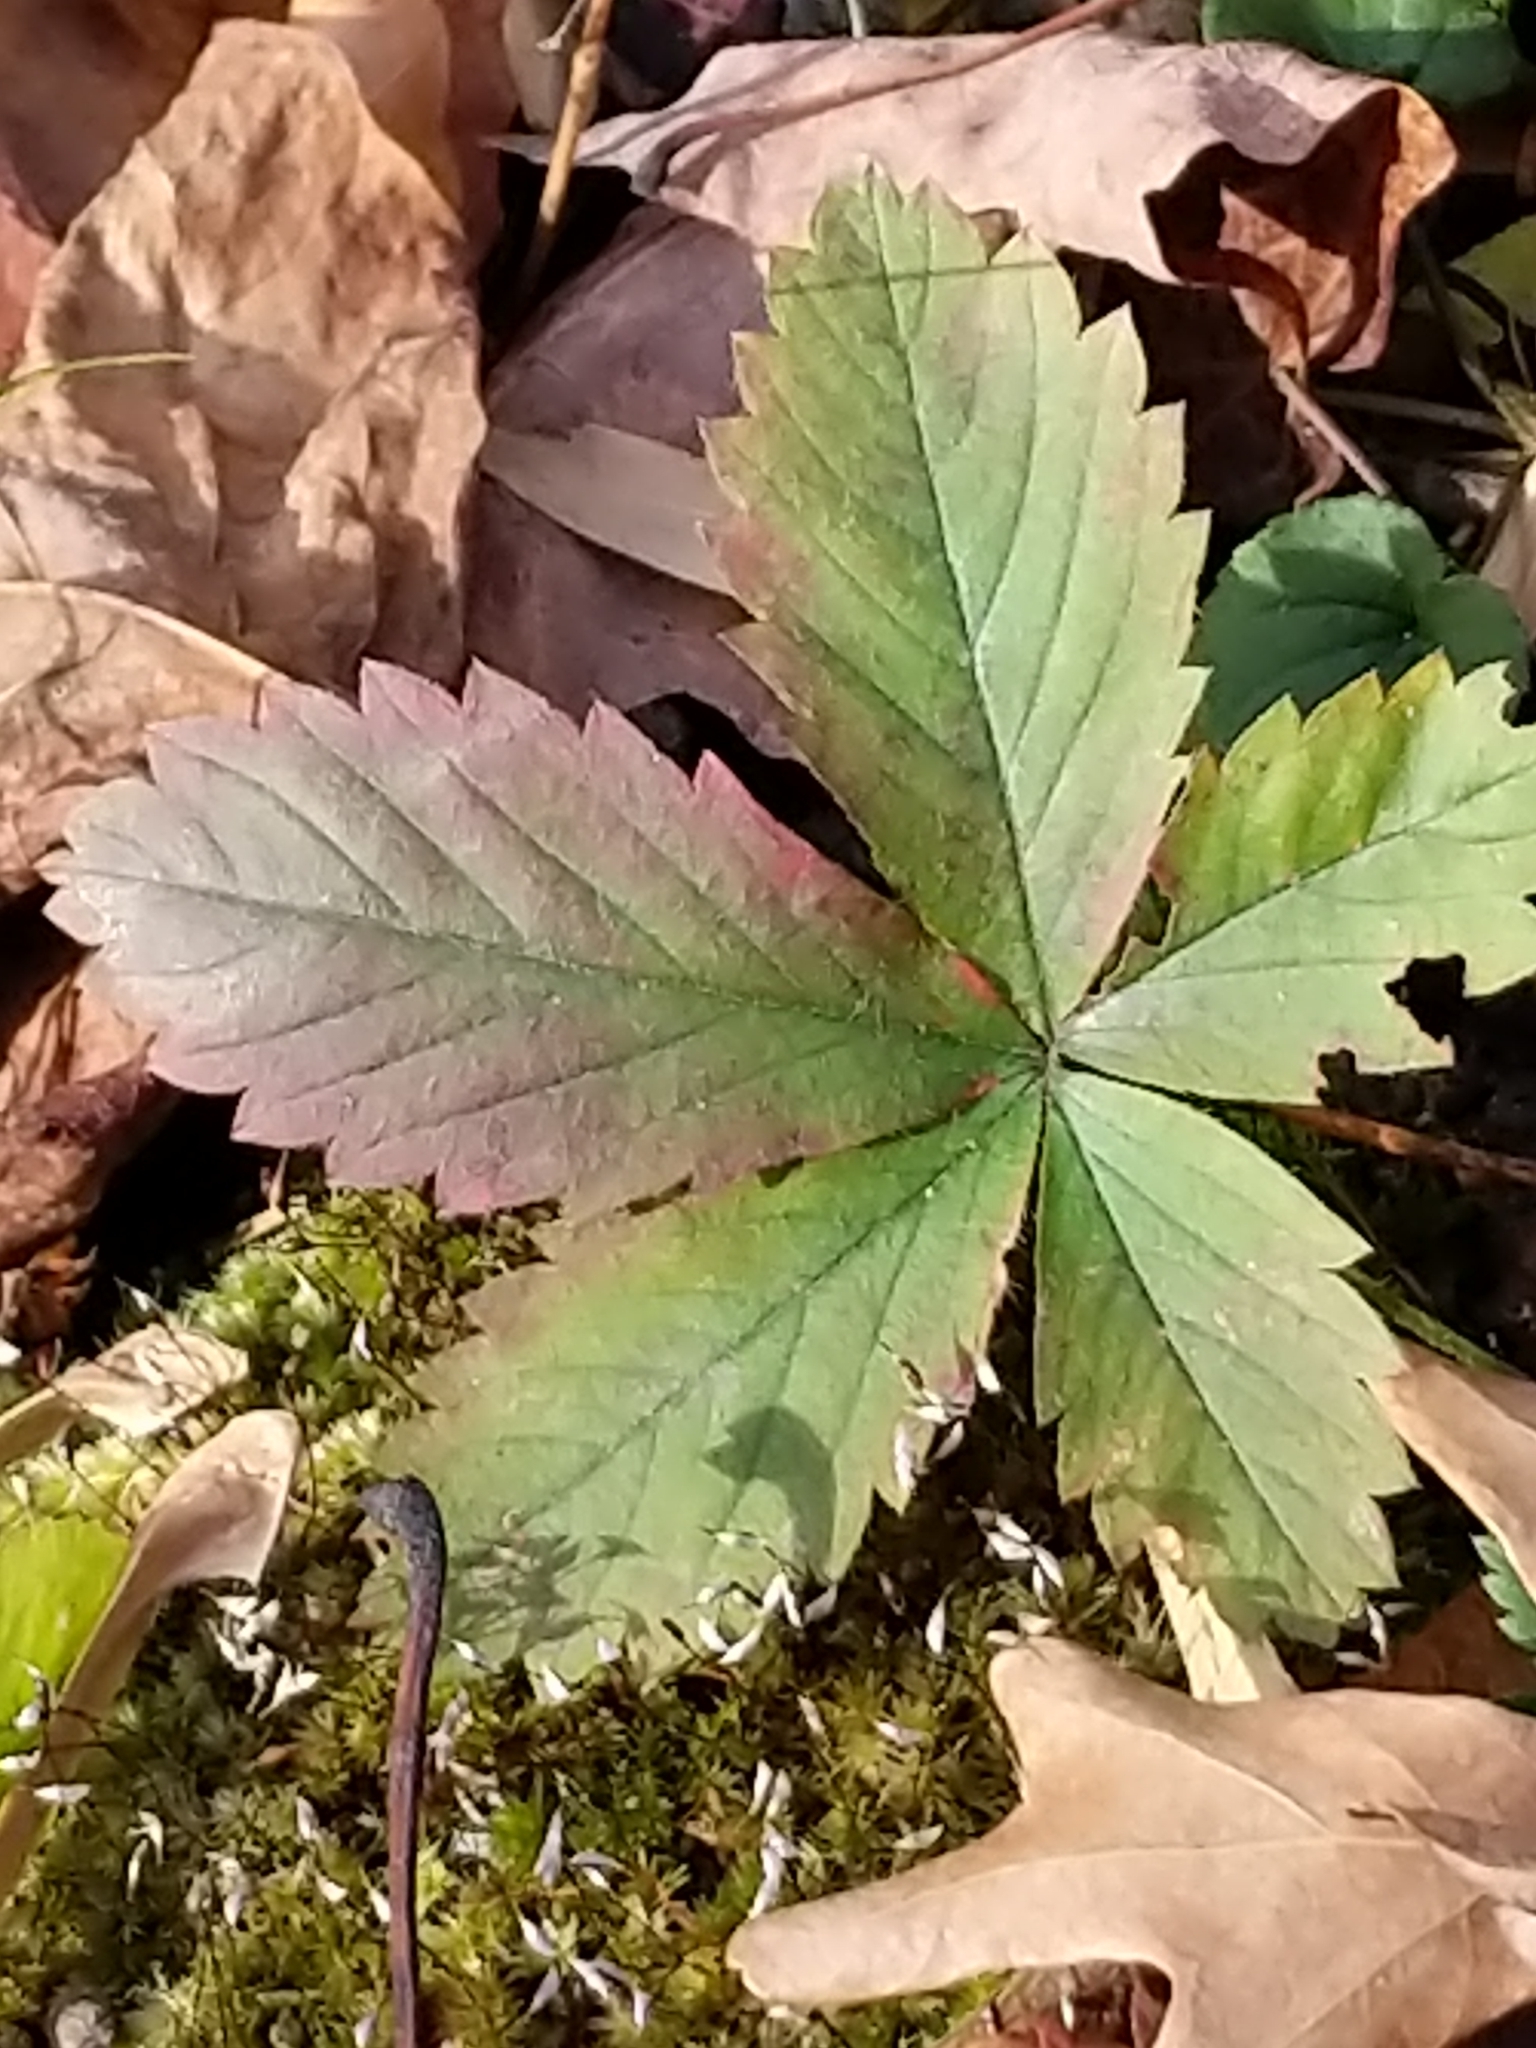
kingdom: Plantae
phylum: Tracheophyta
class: Magnoliopsida
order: Rosales
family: Rosaceae
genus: Potentilla
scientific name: Potentilla simplex
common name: Old field cinquefoil
